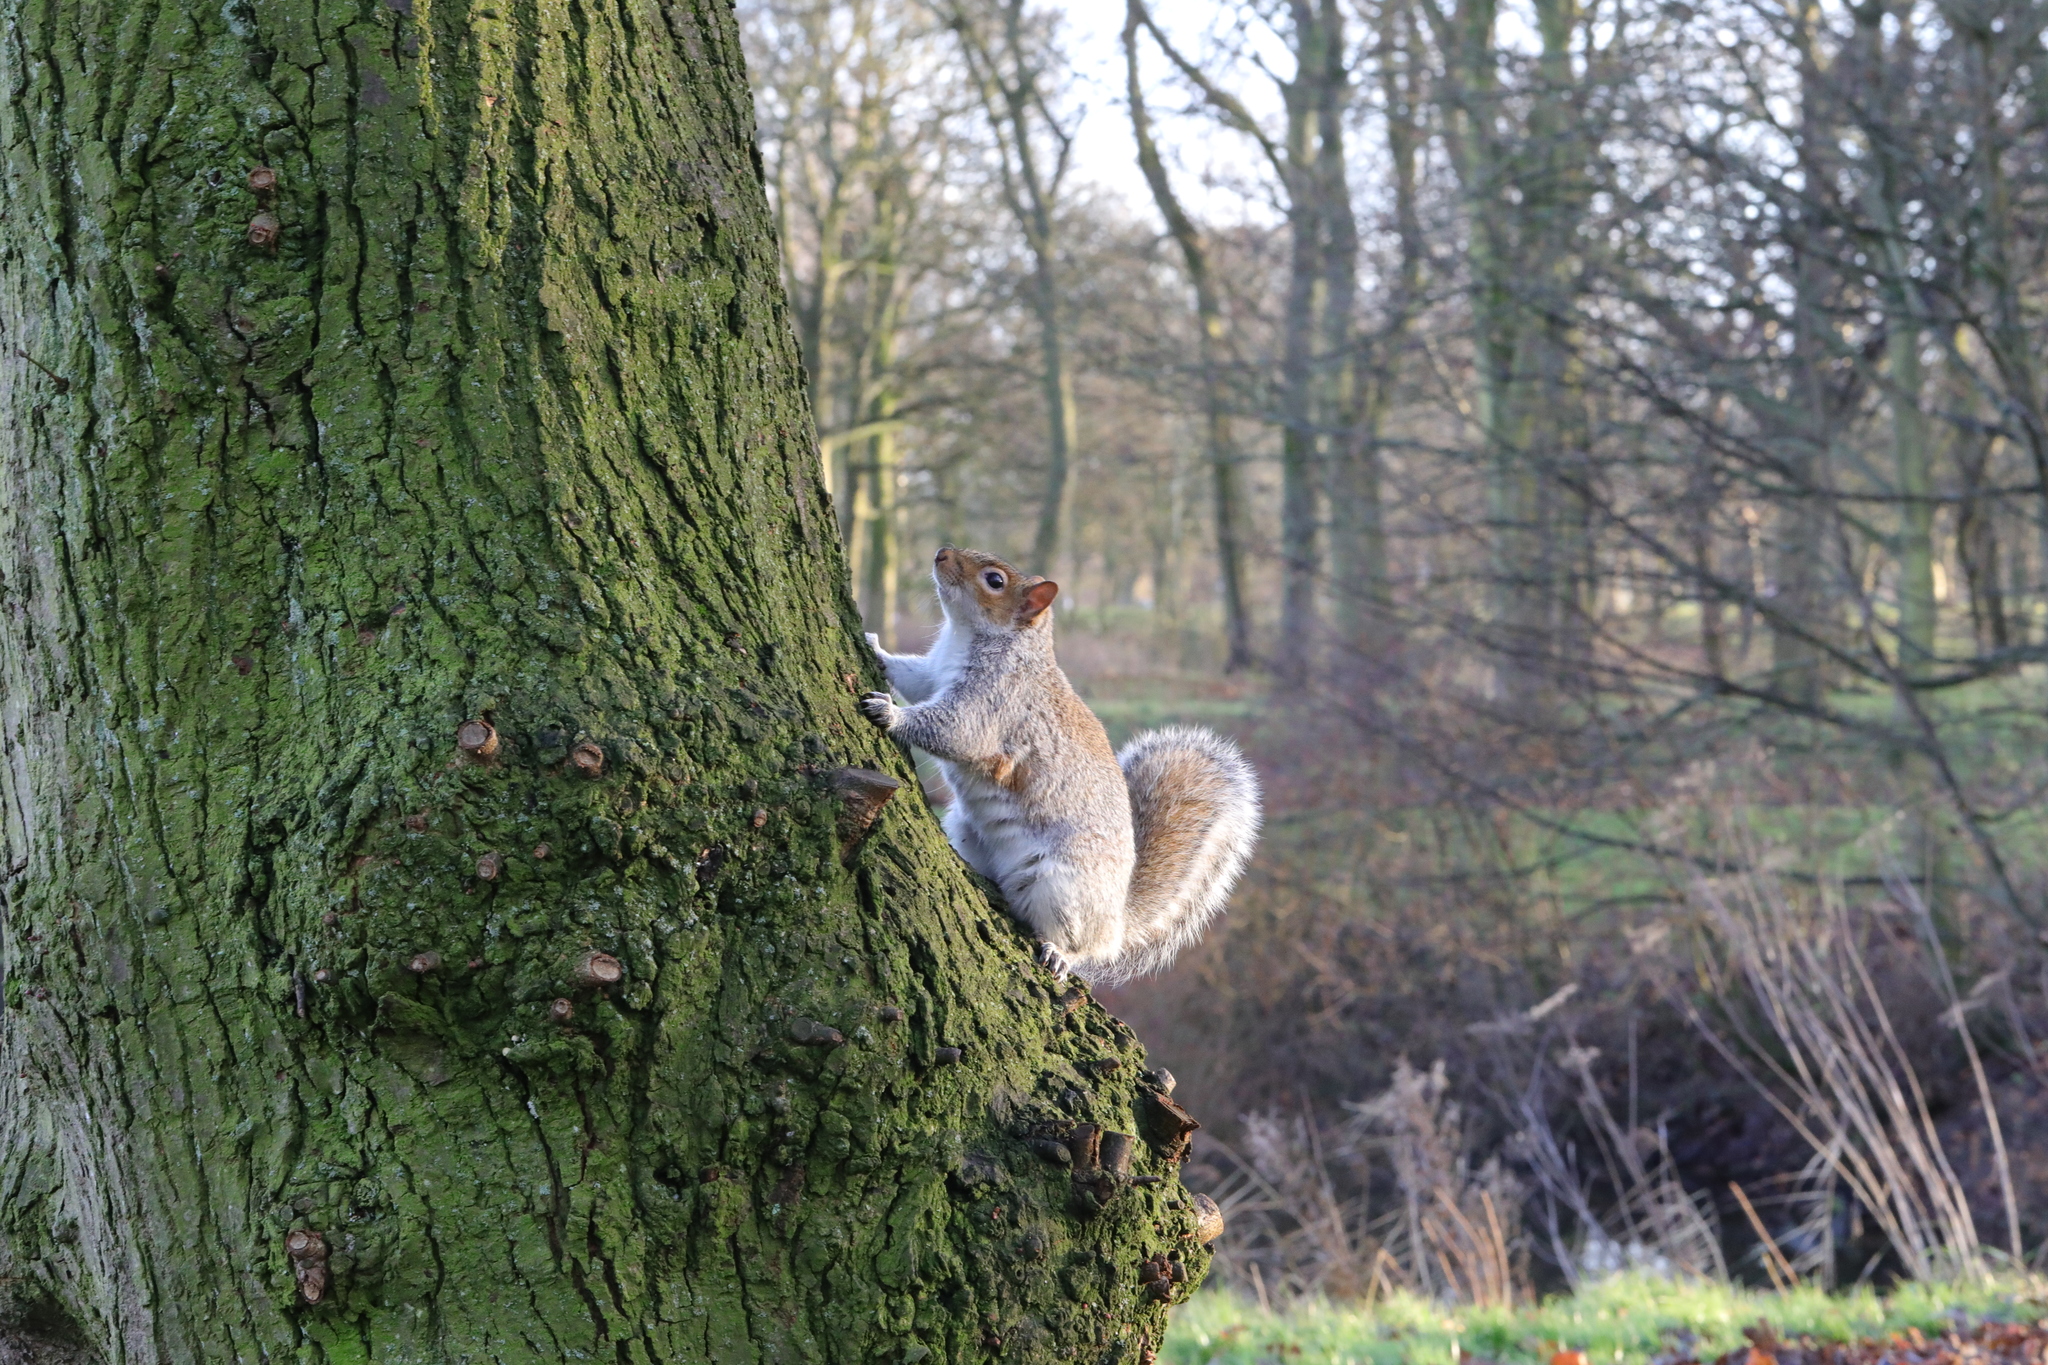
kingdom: Animalia
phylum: Chordata
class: Mammalia
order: Rodentia
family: Sciuridae
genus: Sciurus
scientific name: Sciurus carolinensis
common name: Eastern gray squirrel
